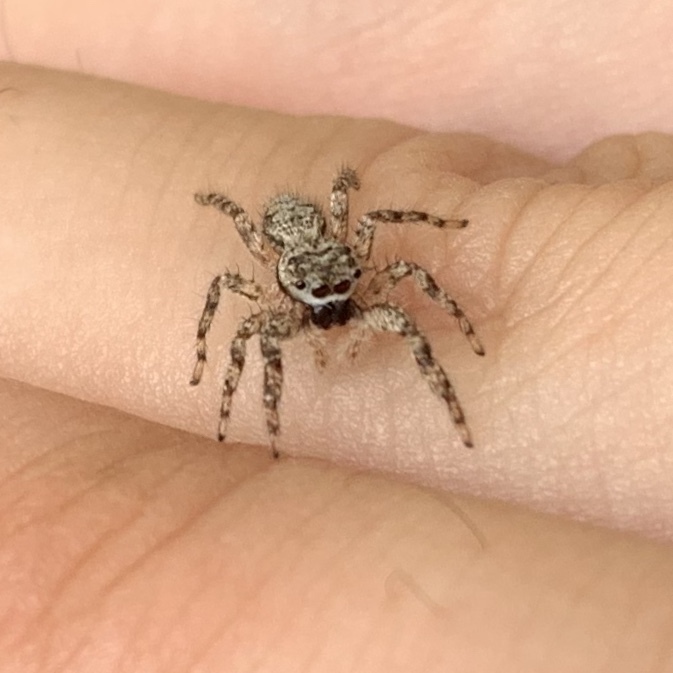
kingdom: Animalia
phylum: Arthropoda
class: Arachnida
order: Araneae
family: Salticidae
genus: Platycryptus
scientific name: Platycryptus undatus
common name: Tan jumping spider
